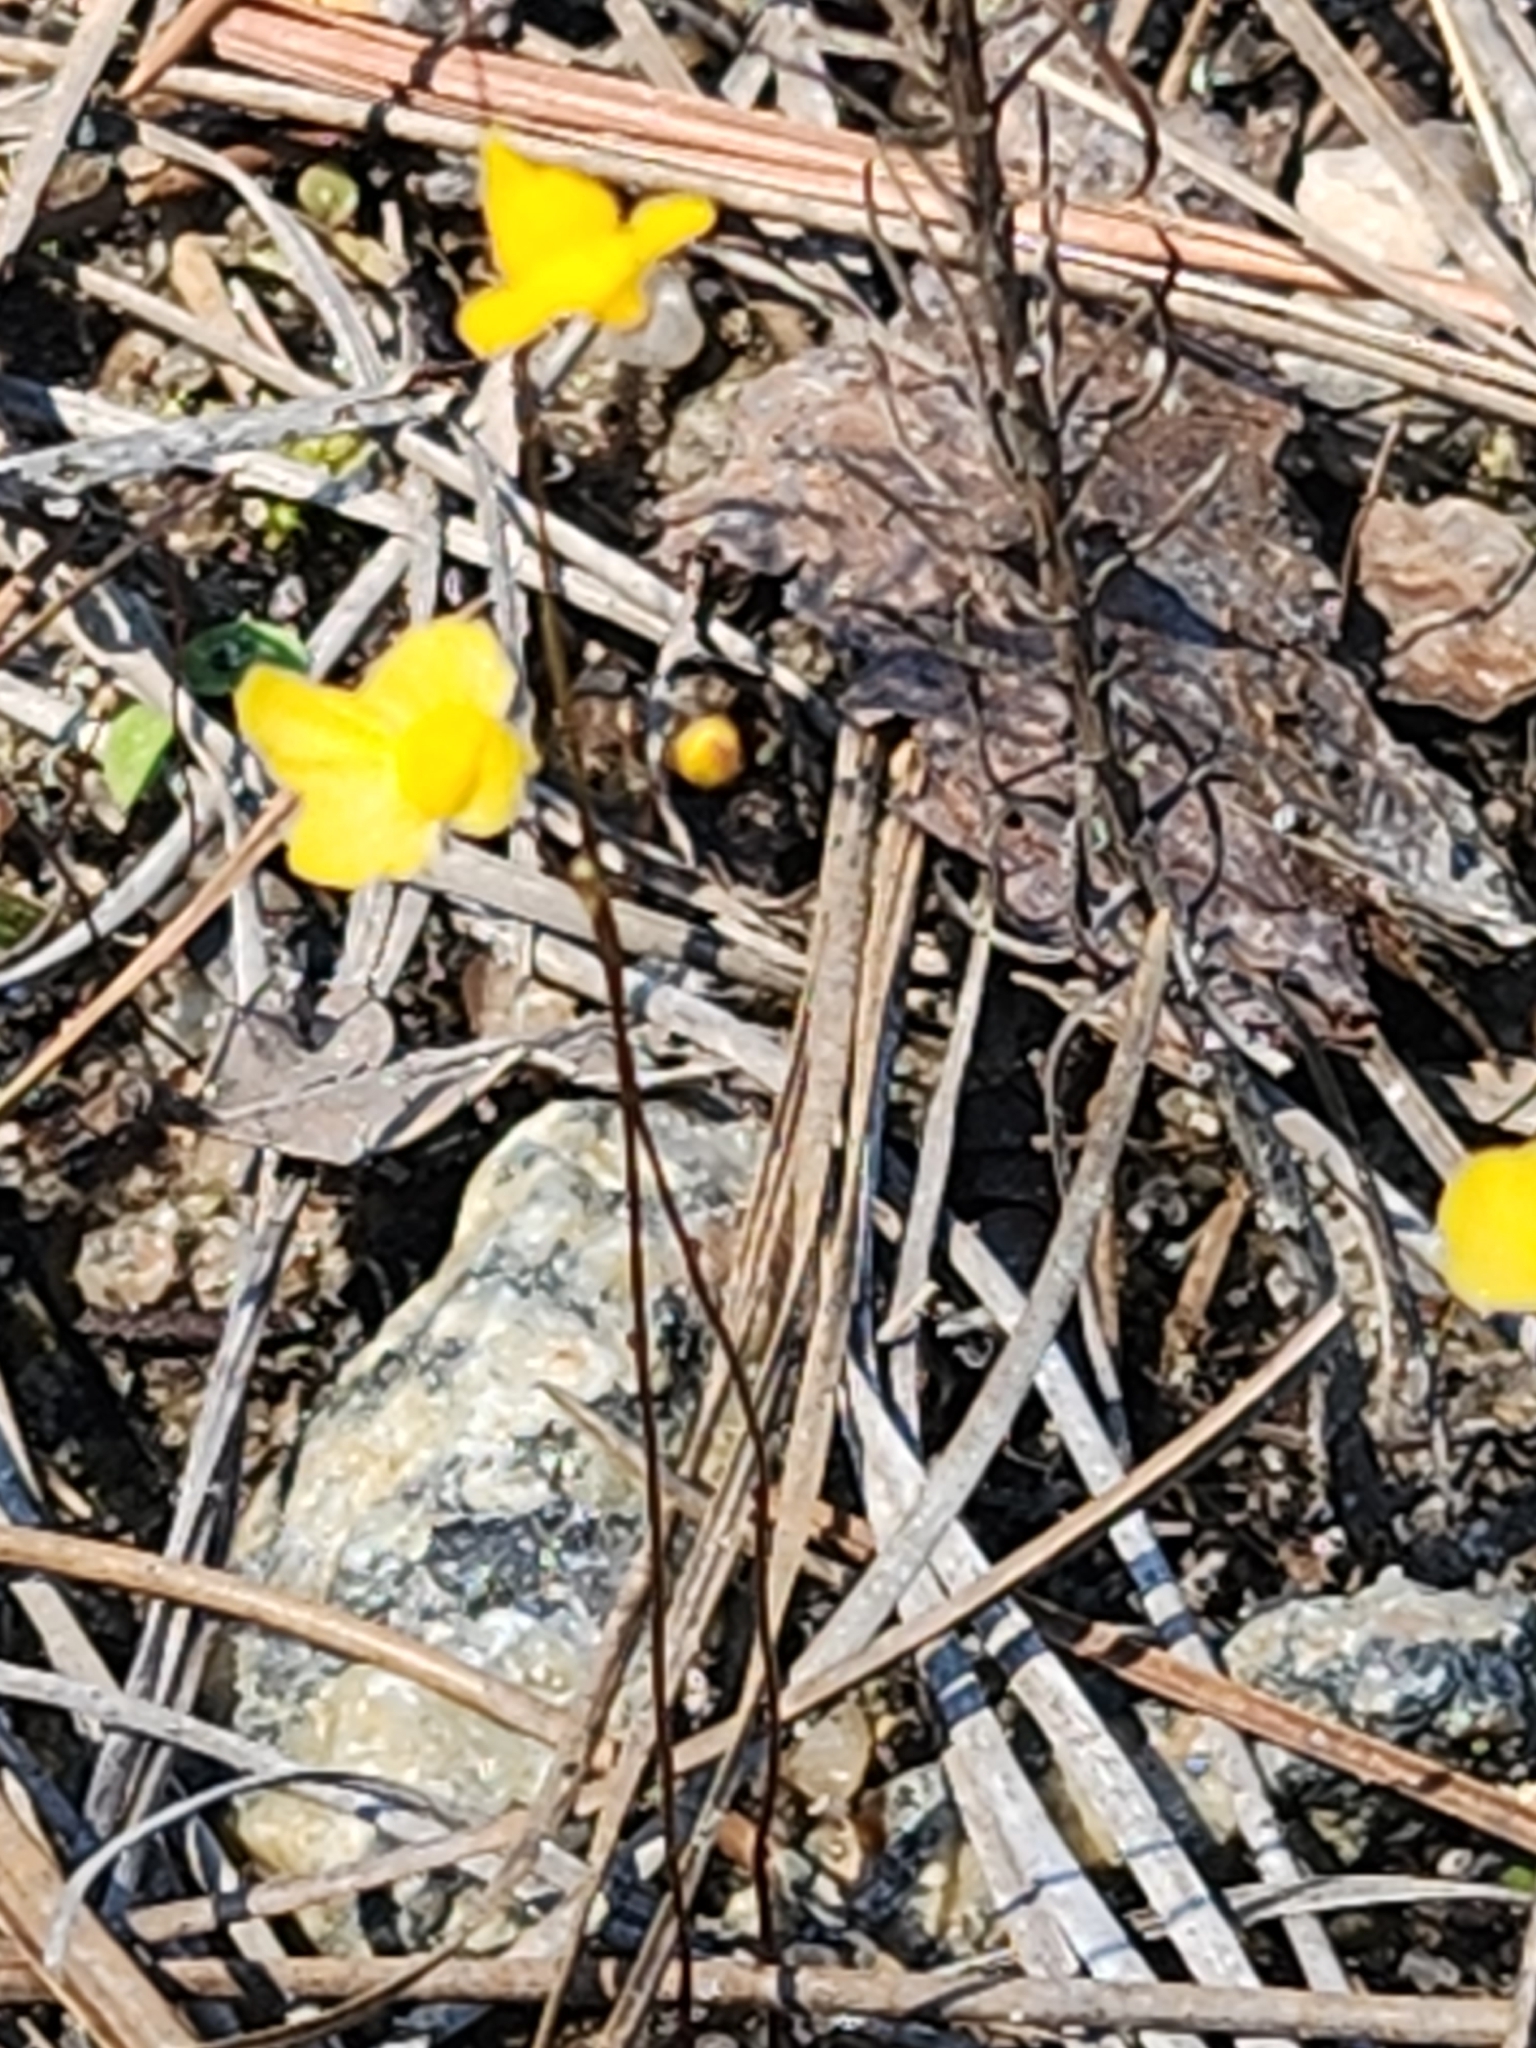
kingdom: Plantae
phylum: Tracheophyta
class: Magnoliopsida
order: Lamiales
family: Lentibulariaceae
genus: Utricularia
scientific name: Utricularia subulata
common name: Tiny bladderwort
